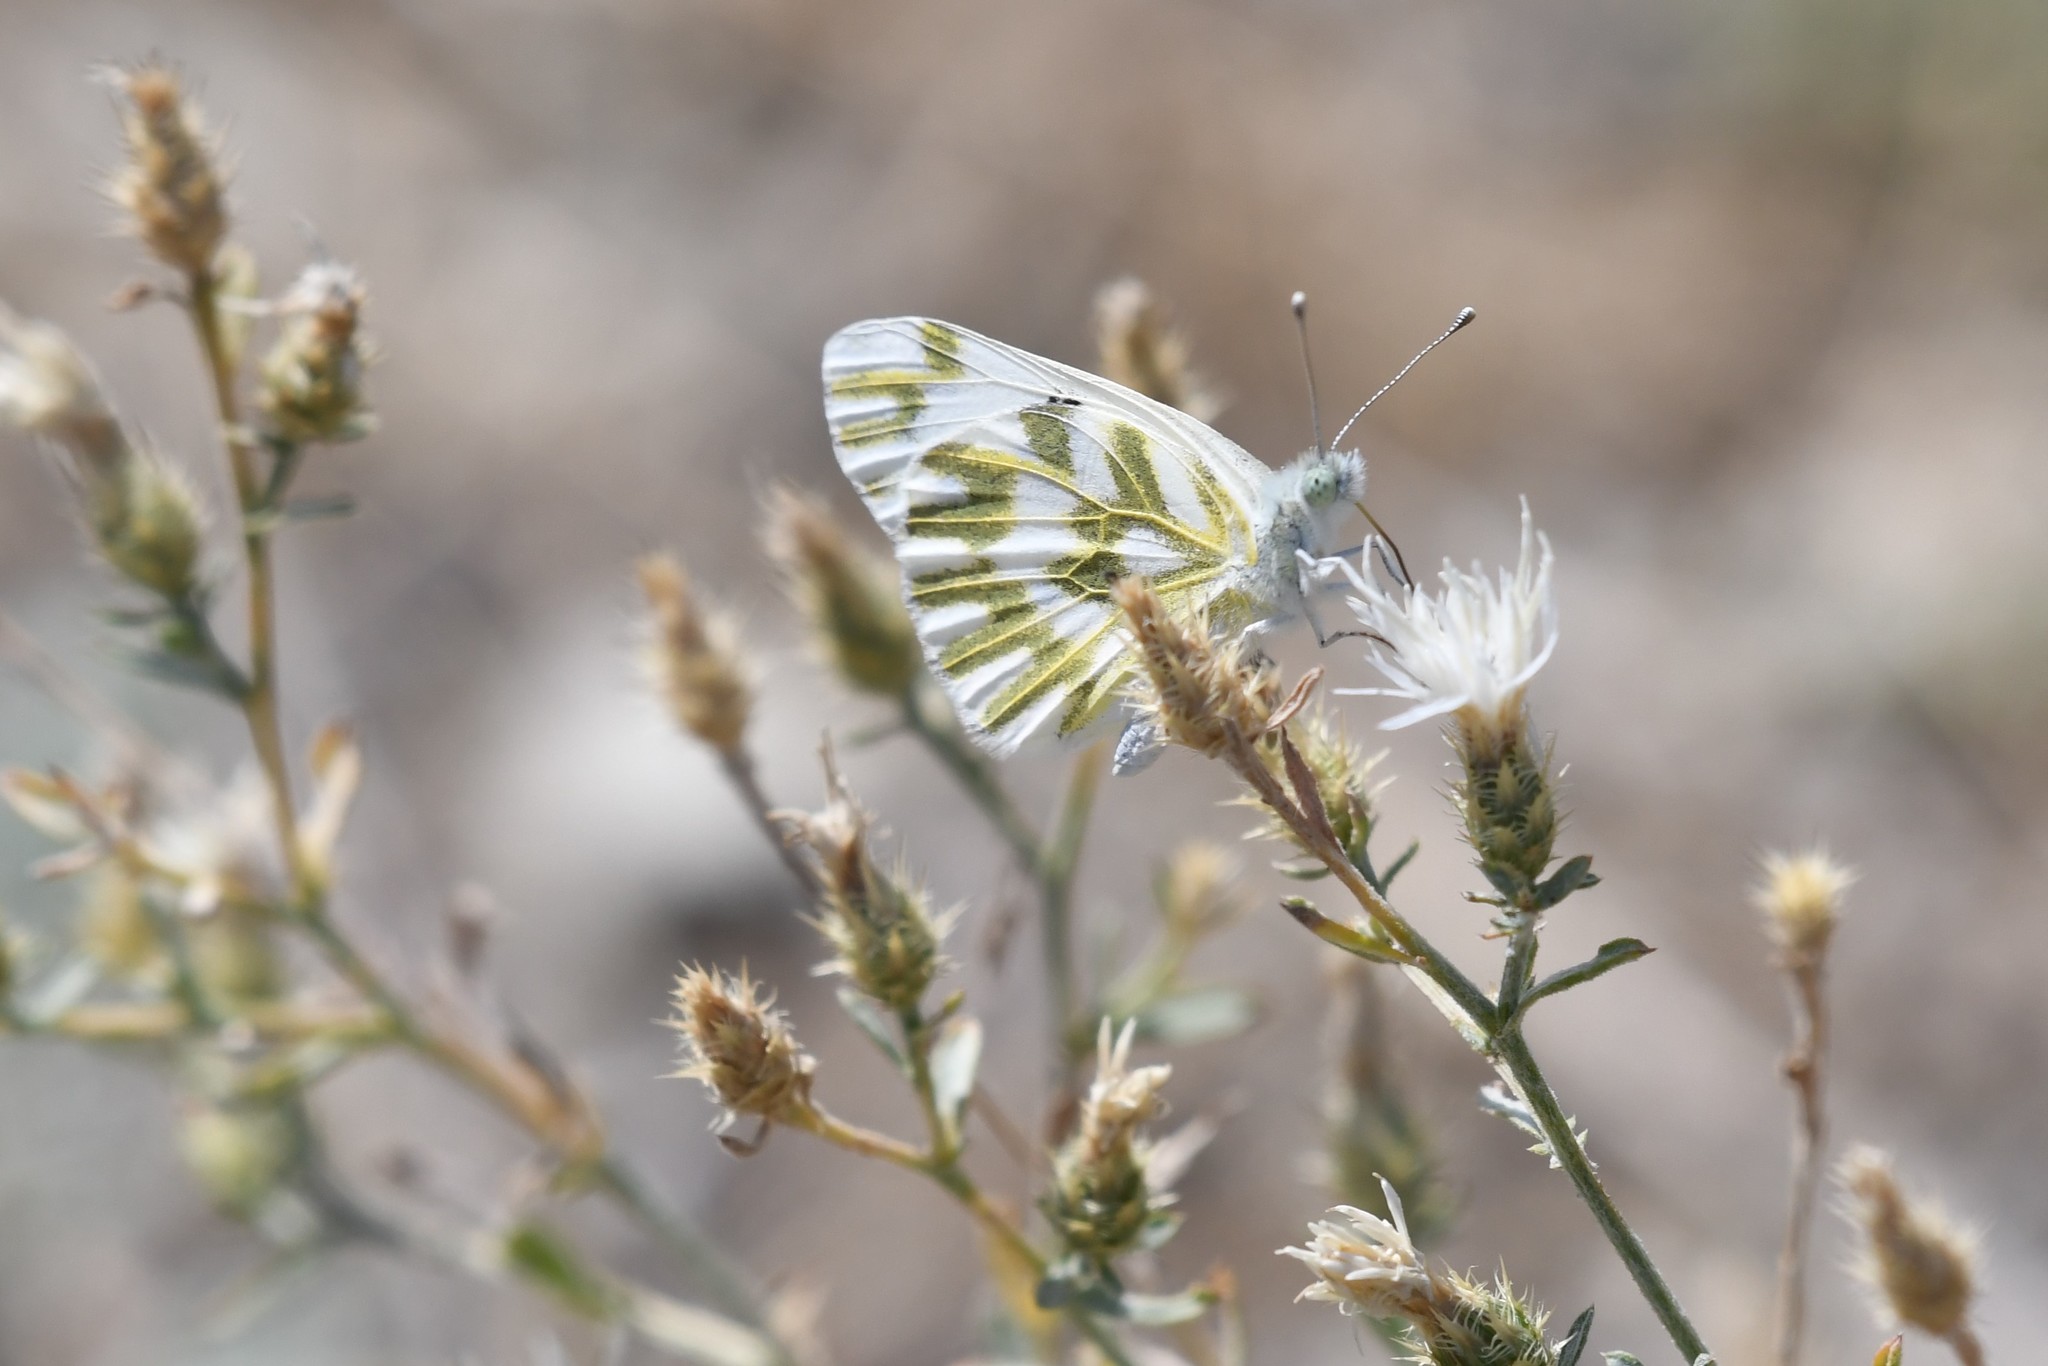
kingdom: Animalia
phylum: Arthropoda
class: Insecta
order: Lepidoptera
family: Pieridae
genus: Pontia
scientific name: Pontia beckerii
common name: Becker's white
